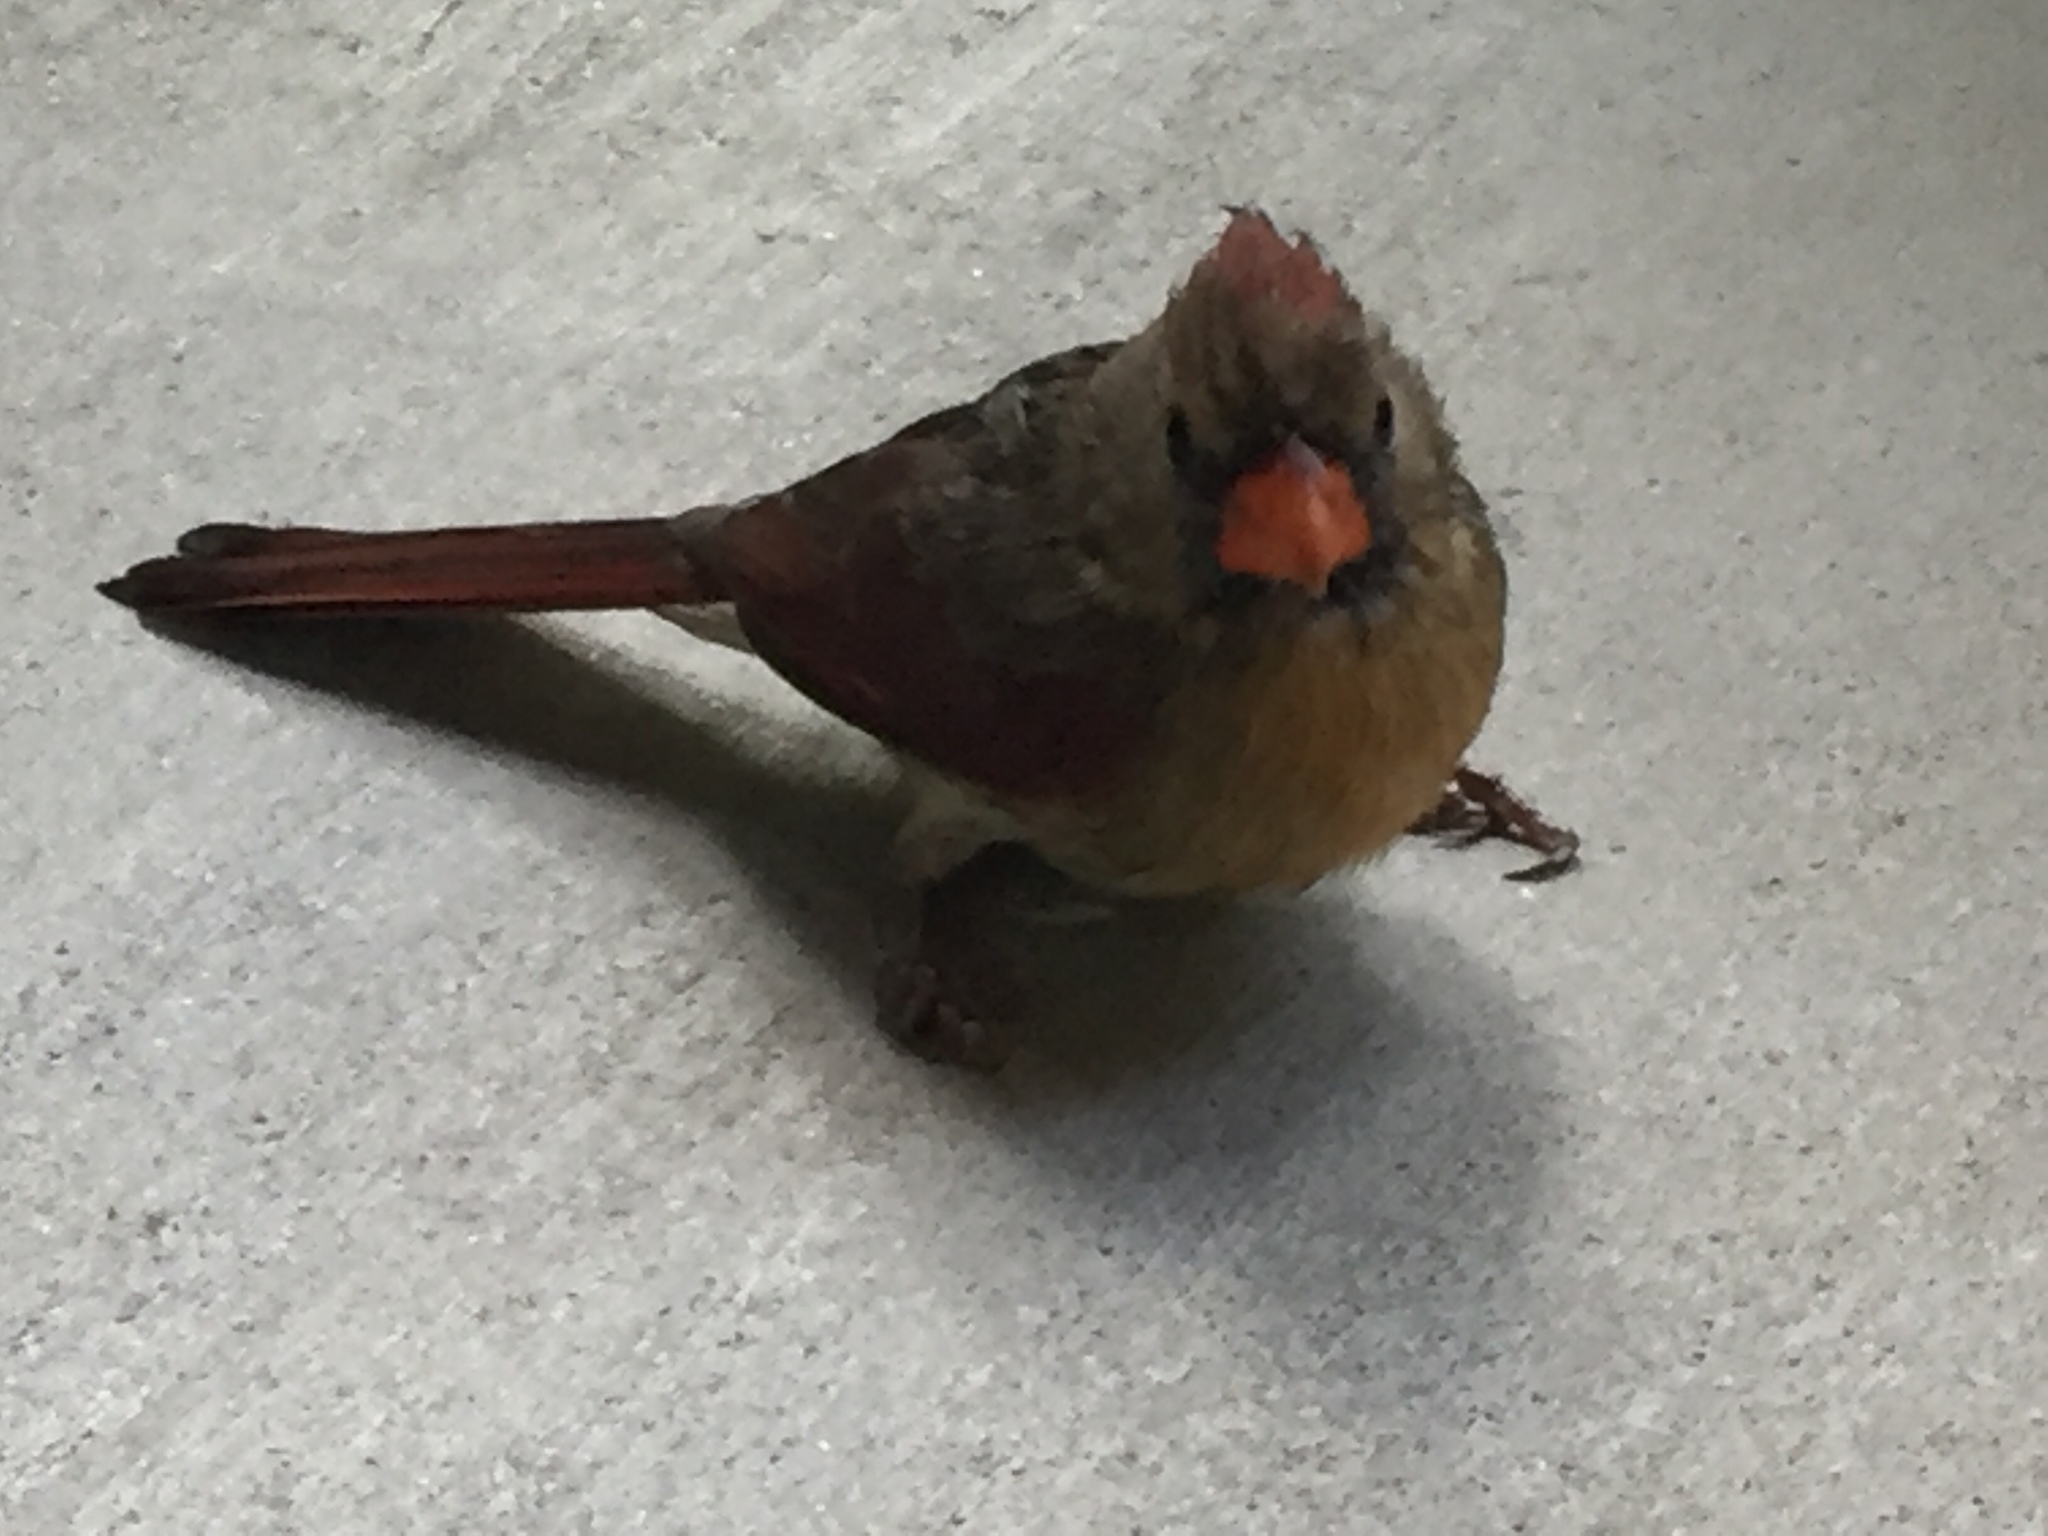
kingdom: Animalia
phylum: Chordata
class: Aves
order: Passeriformes
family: Cardinalidae
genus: Cardinalis
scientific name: Cardinalis cardinalis
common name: Northern cardinal
